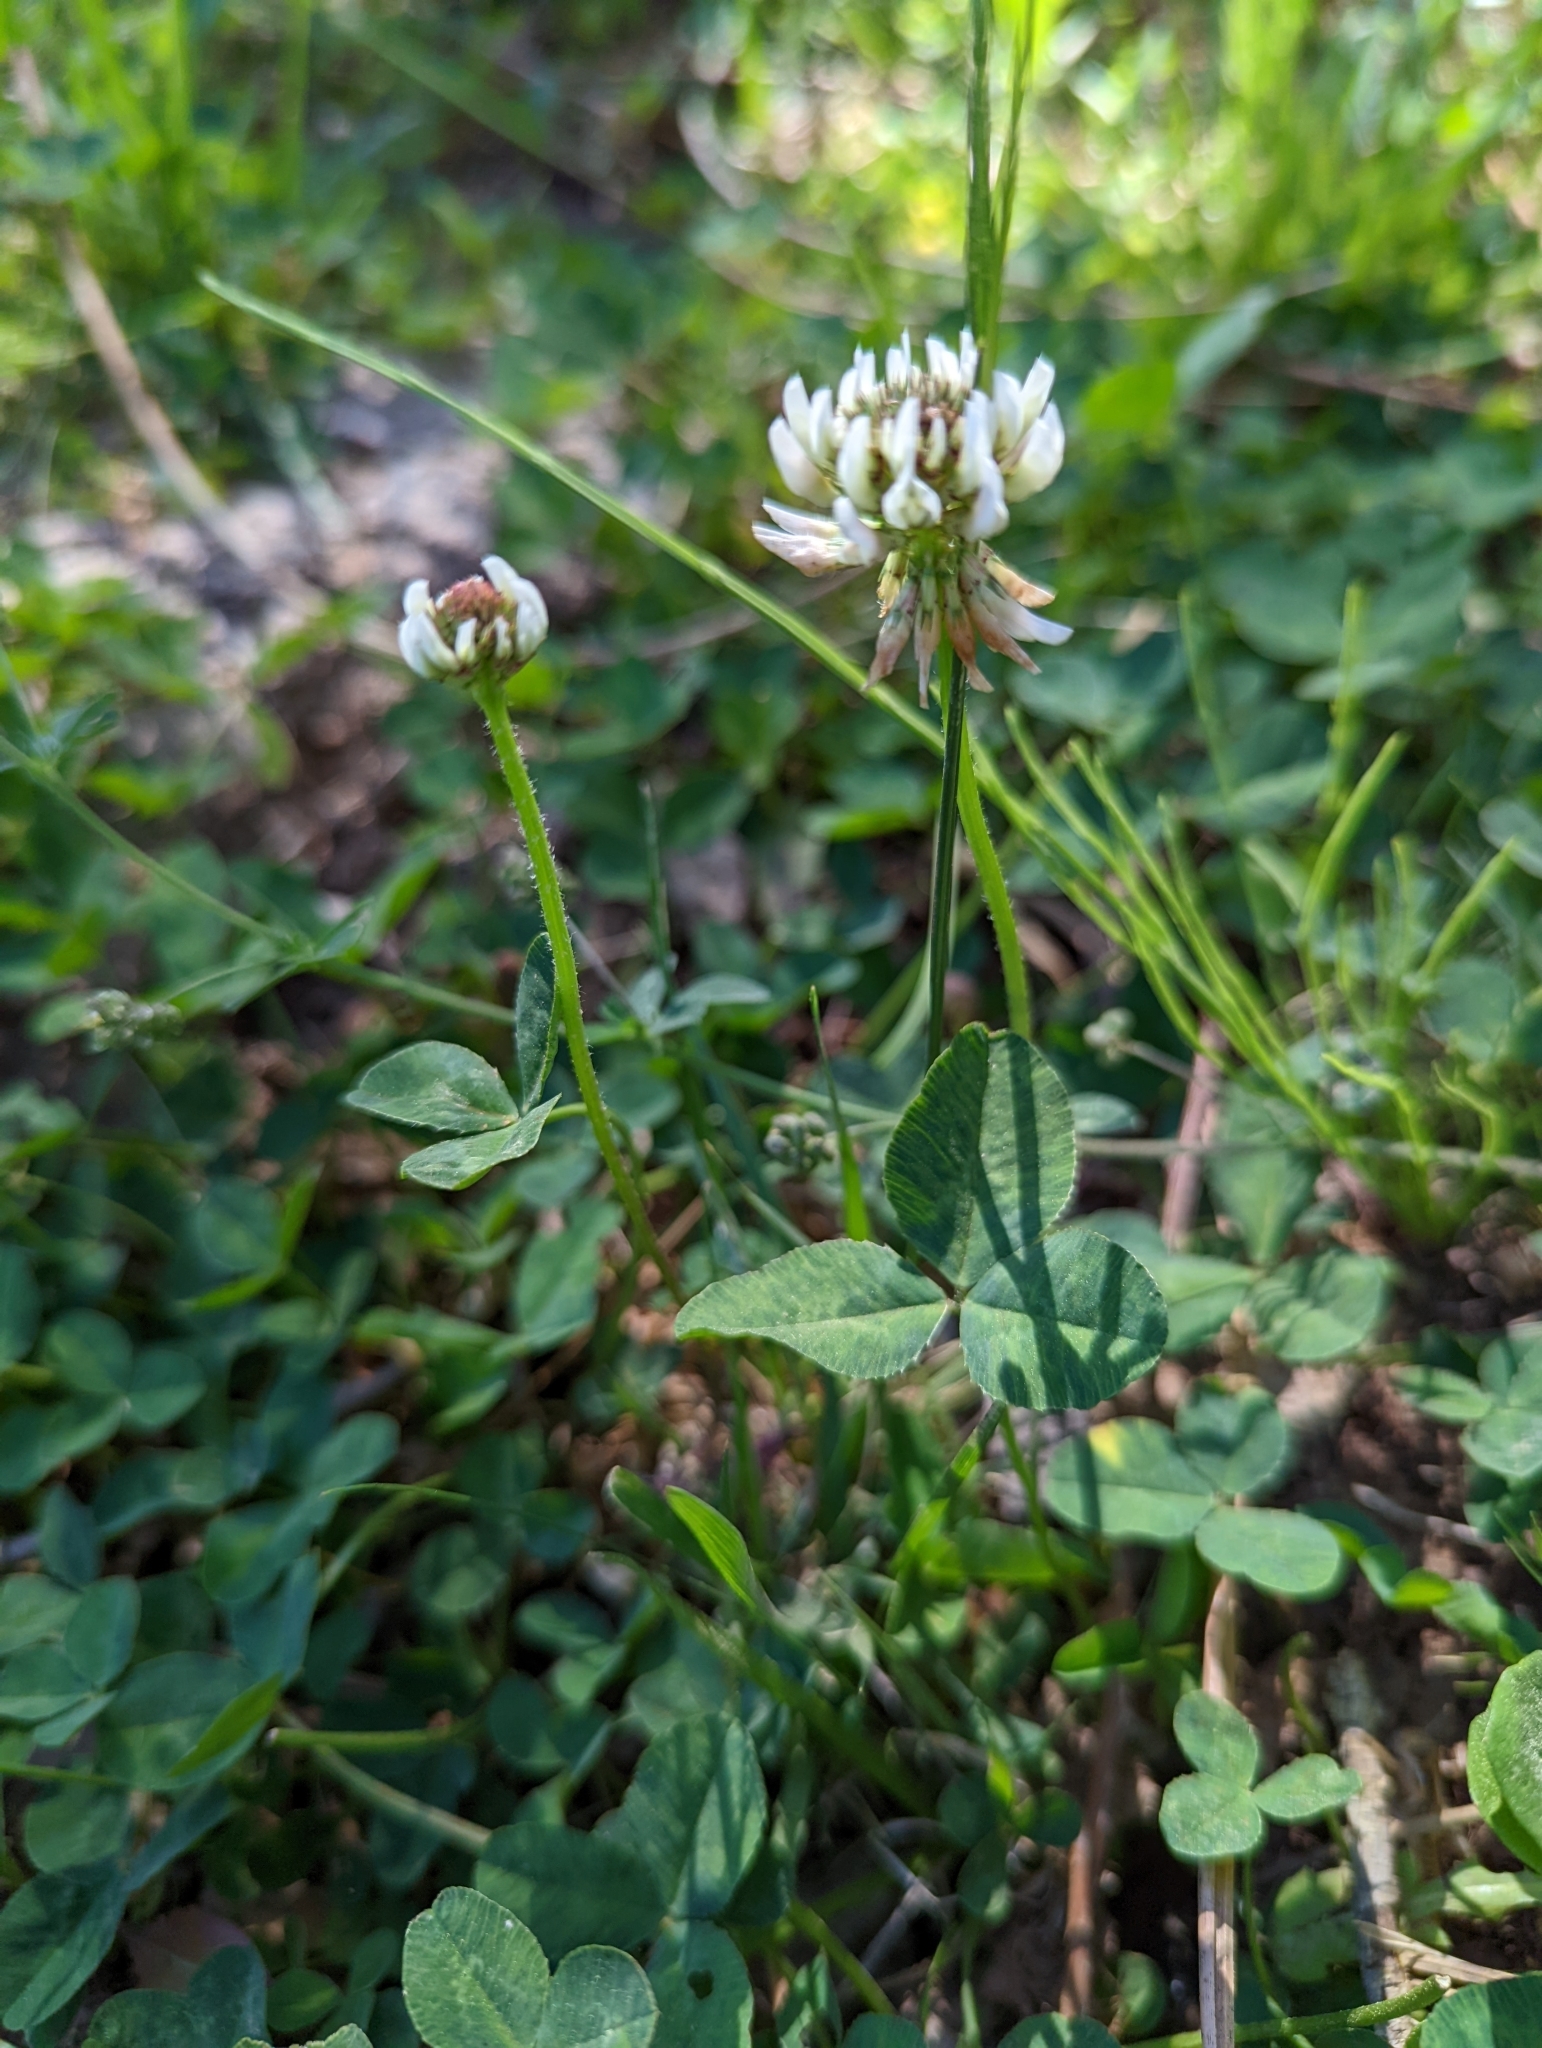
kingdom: Plantae
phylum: Tracheophyta
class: Magnoliopsida
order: Fabales
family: Fabaceae
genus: Trifolium
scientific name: Trifolium repens
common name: White clover
